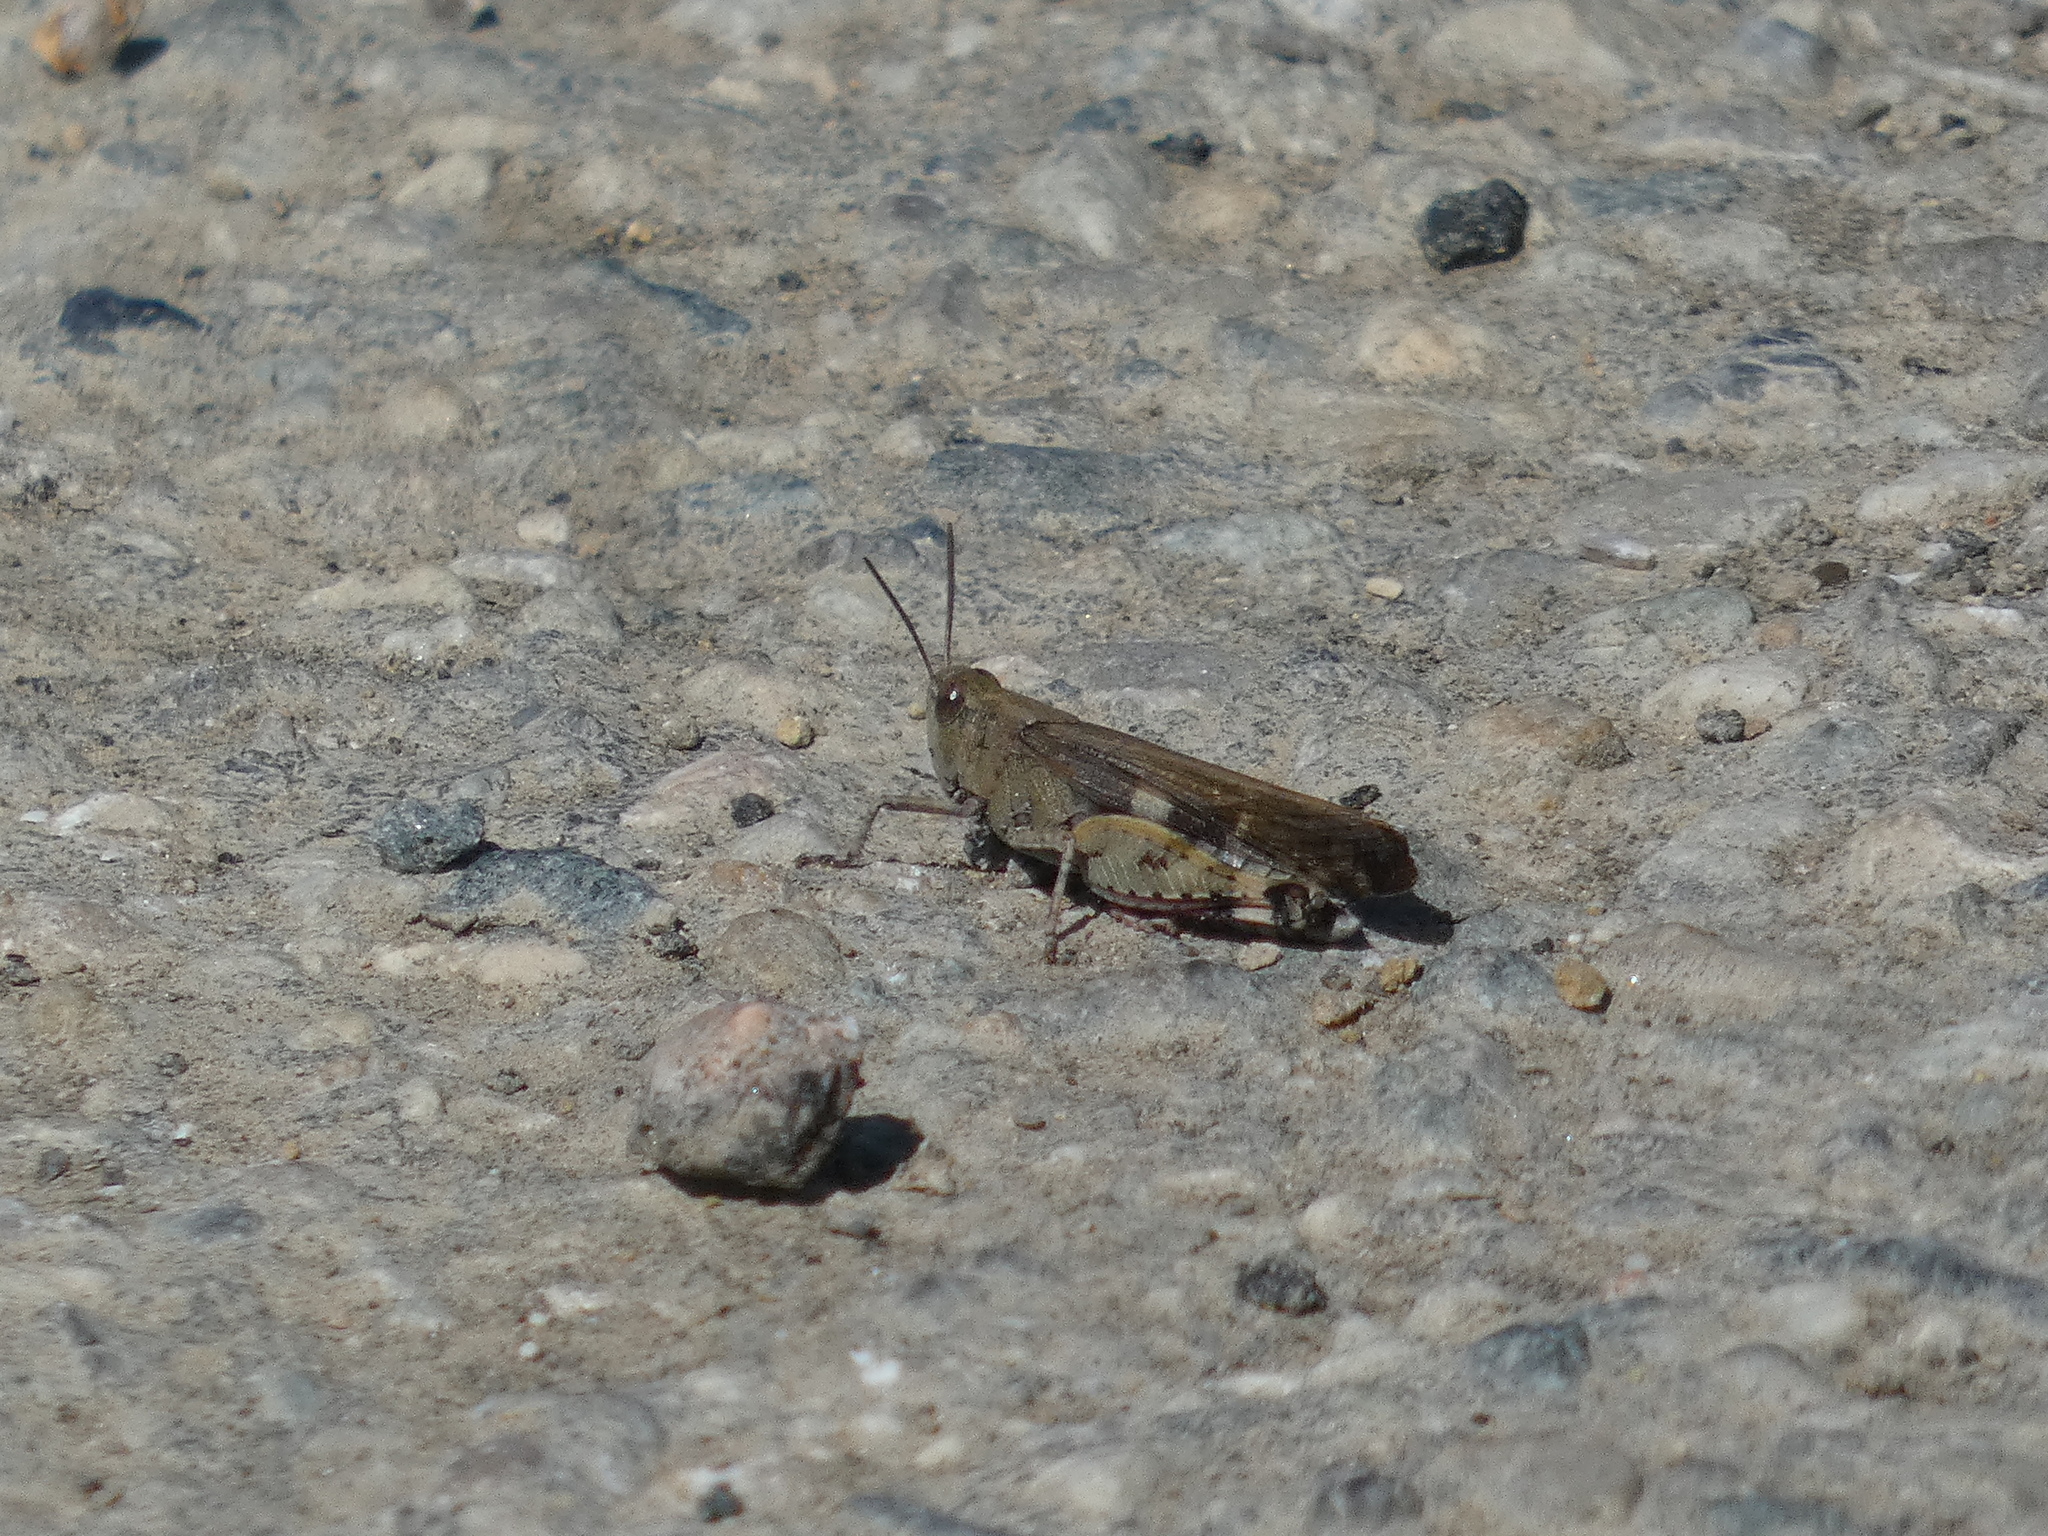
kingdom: Animalia
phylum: Arthropoda
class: Insecta
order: Orthoptera
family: Acrididae
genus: Aiolopus
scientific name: Aiolopus strepens
